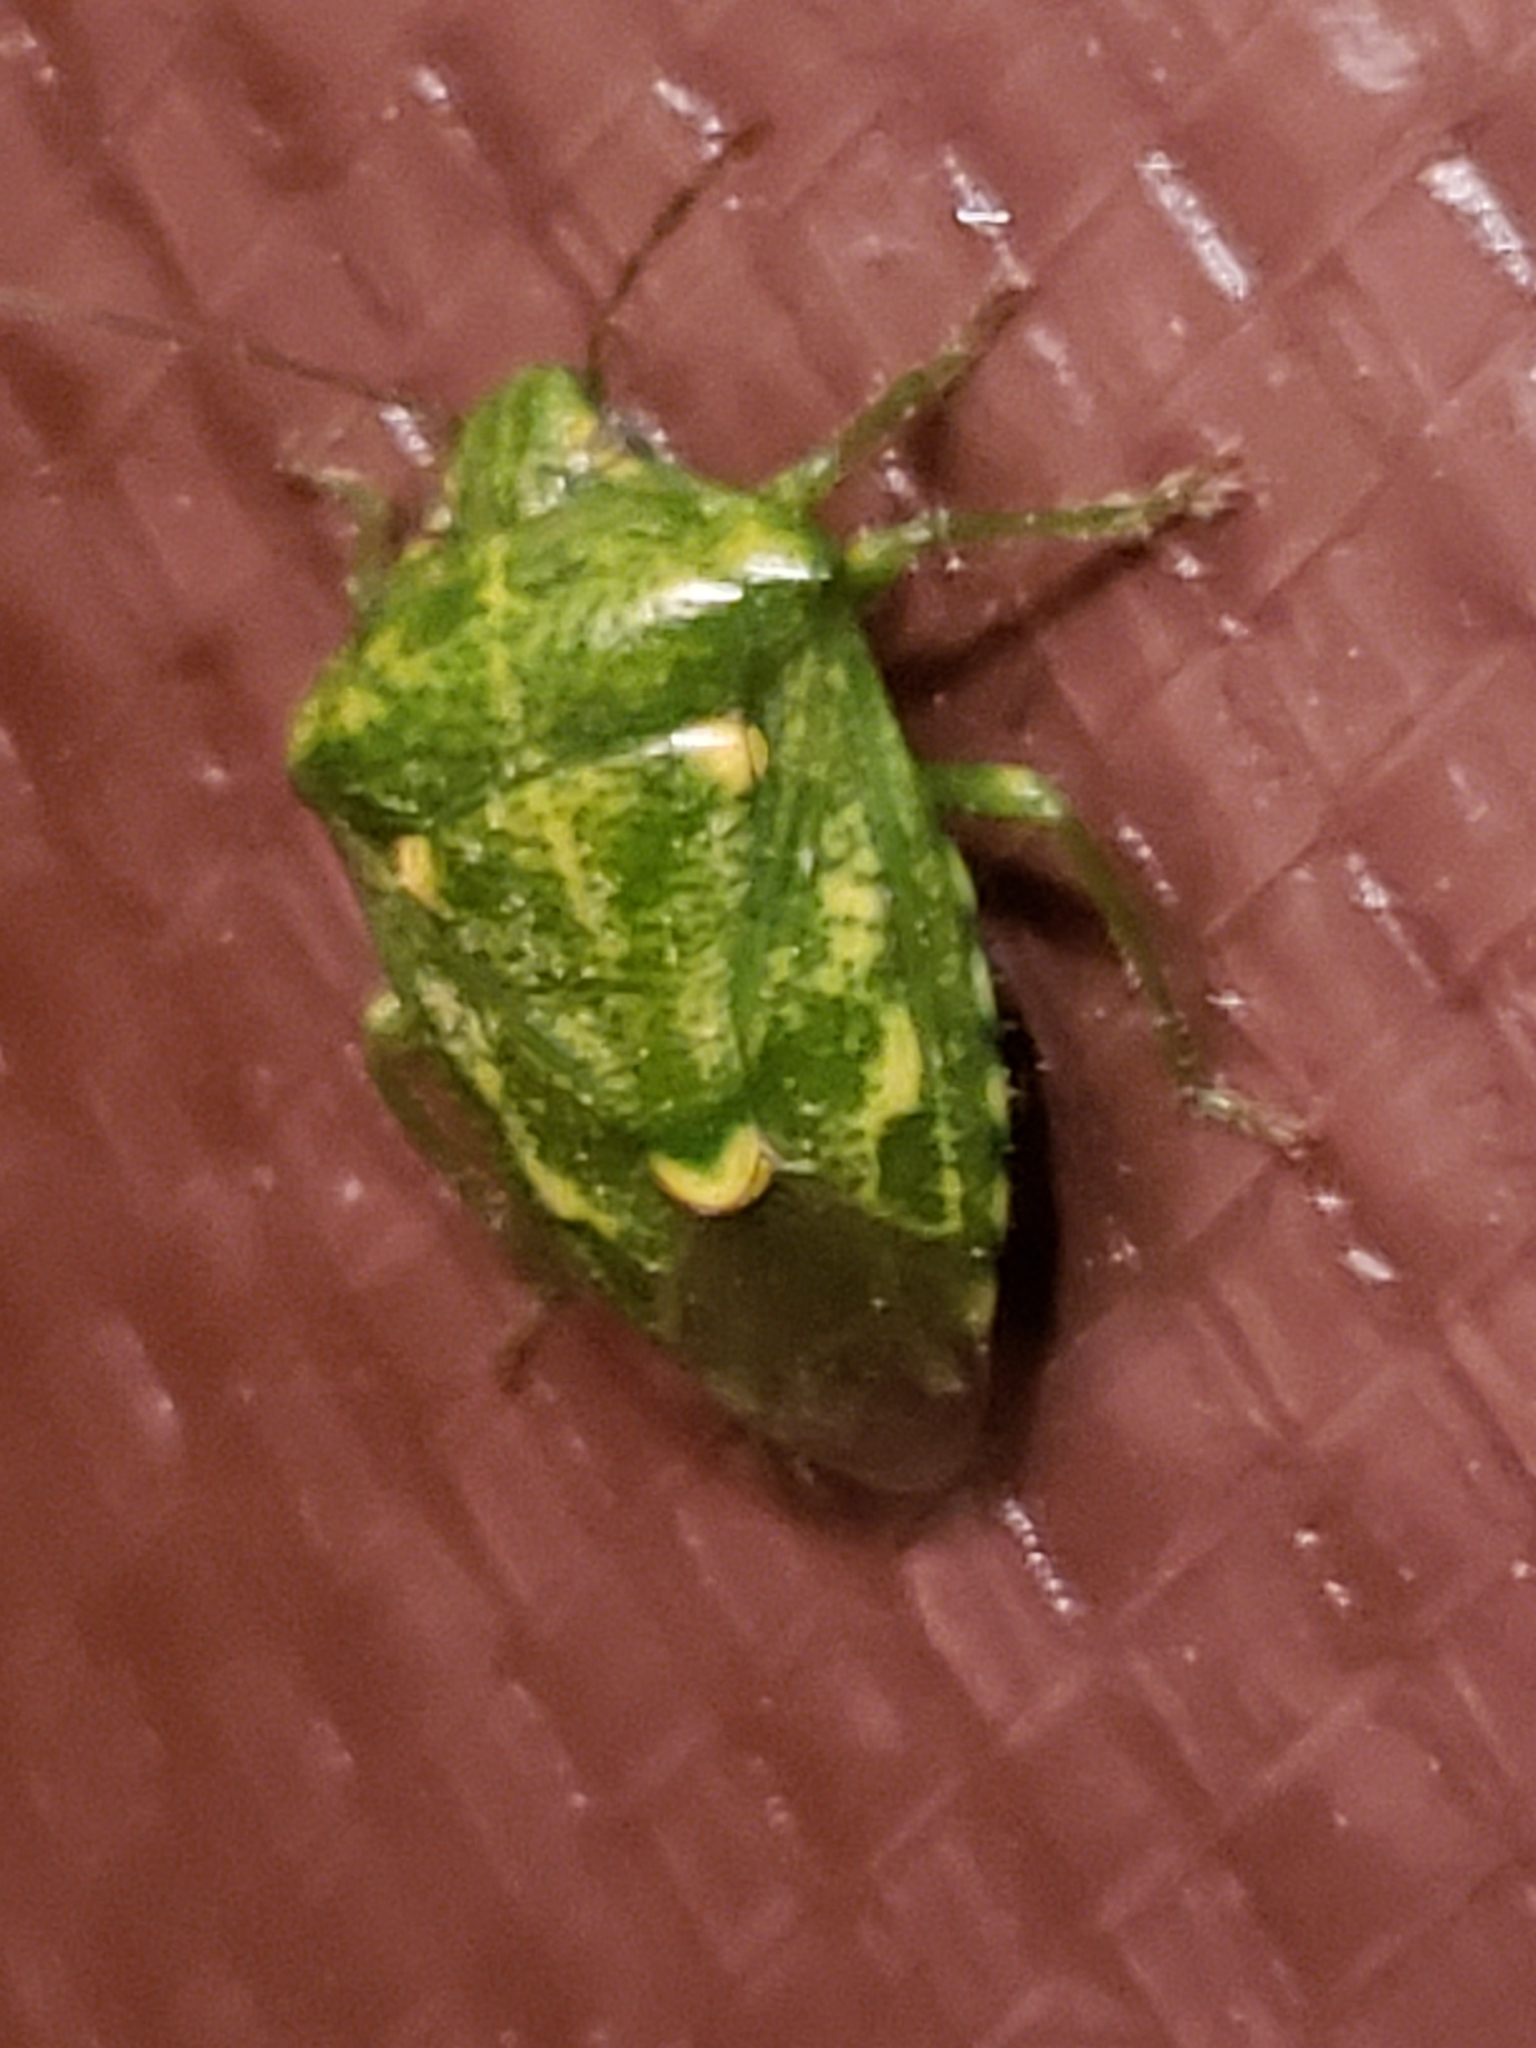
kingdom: Animalia
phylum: Arthropoda
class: Insecta
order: Hemiptera
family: Pentatomidae
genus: Banasa
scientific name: Banasa euchlora
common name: Cedar berry bug
